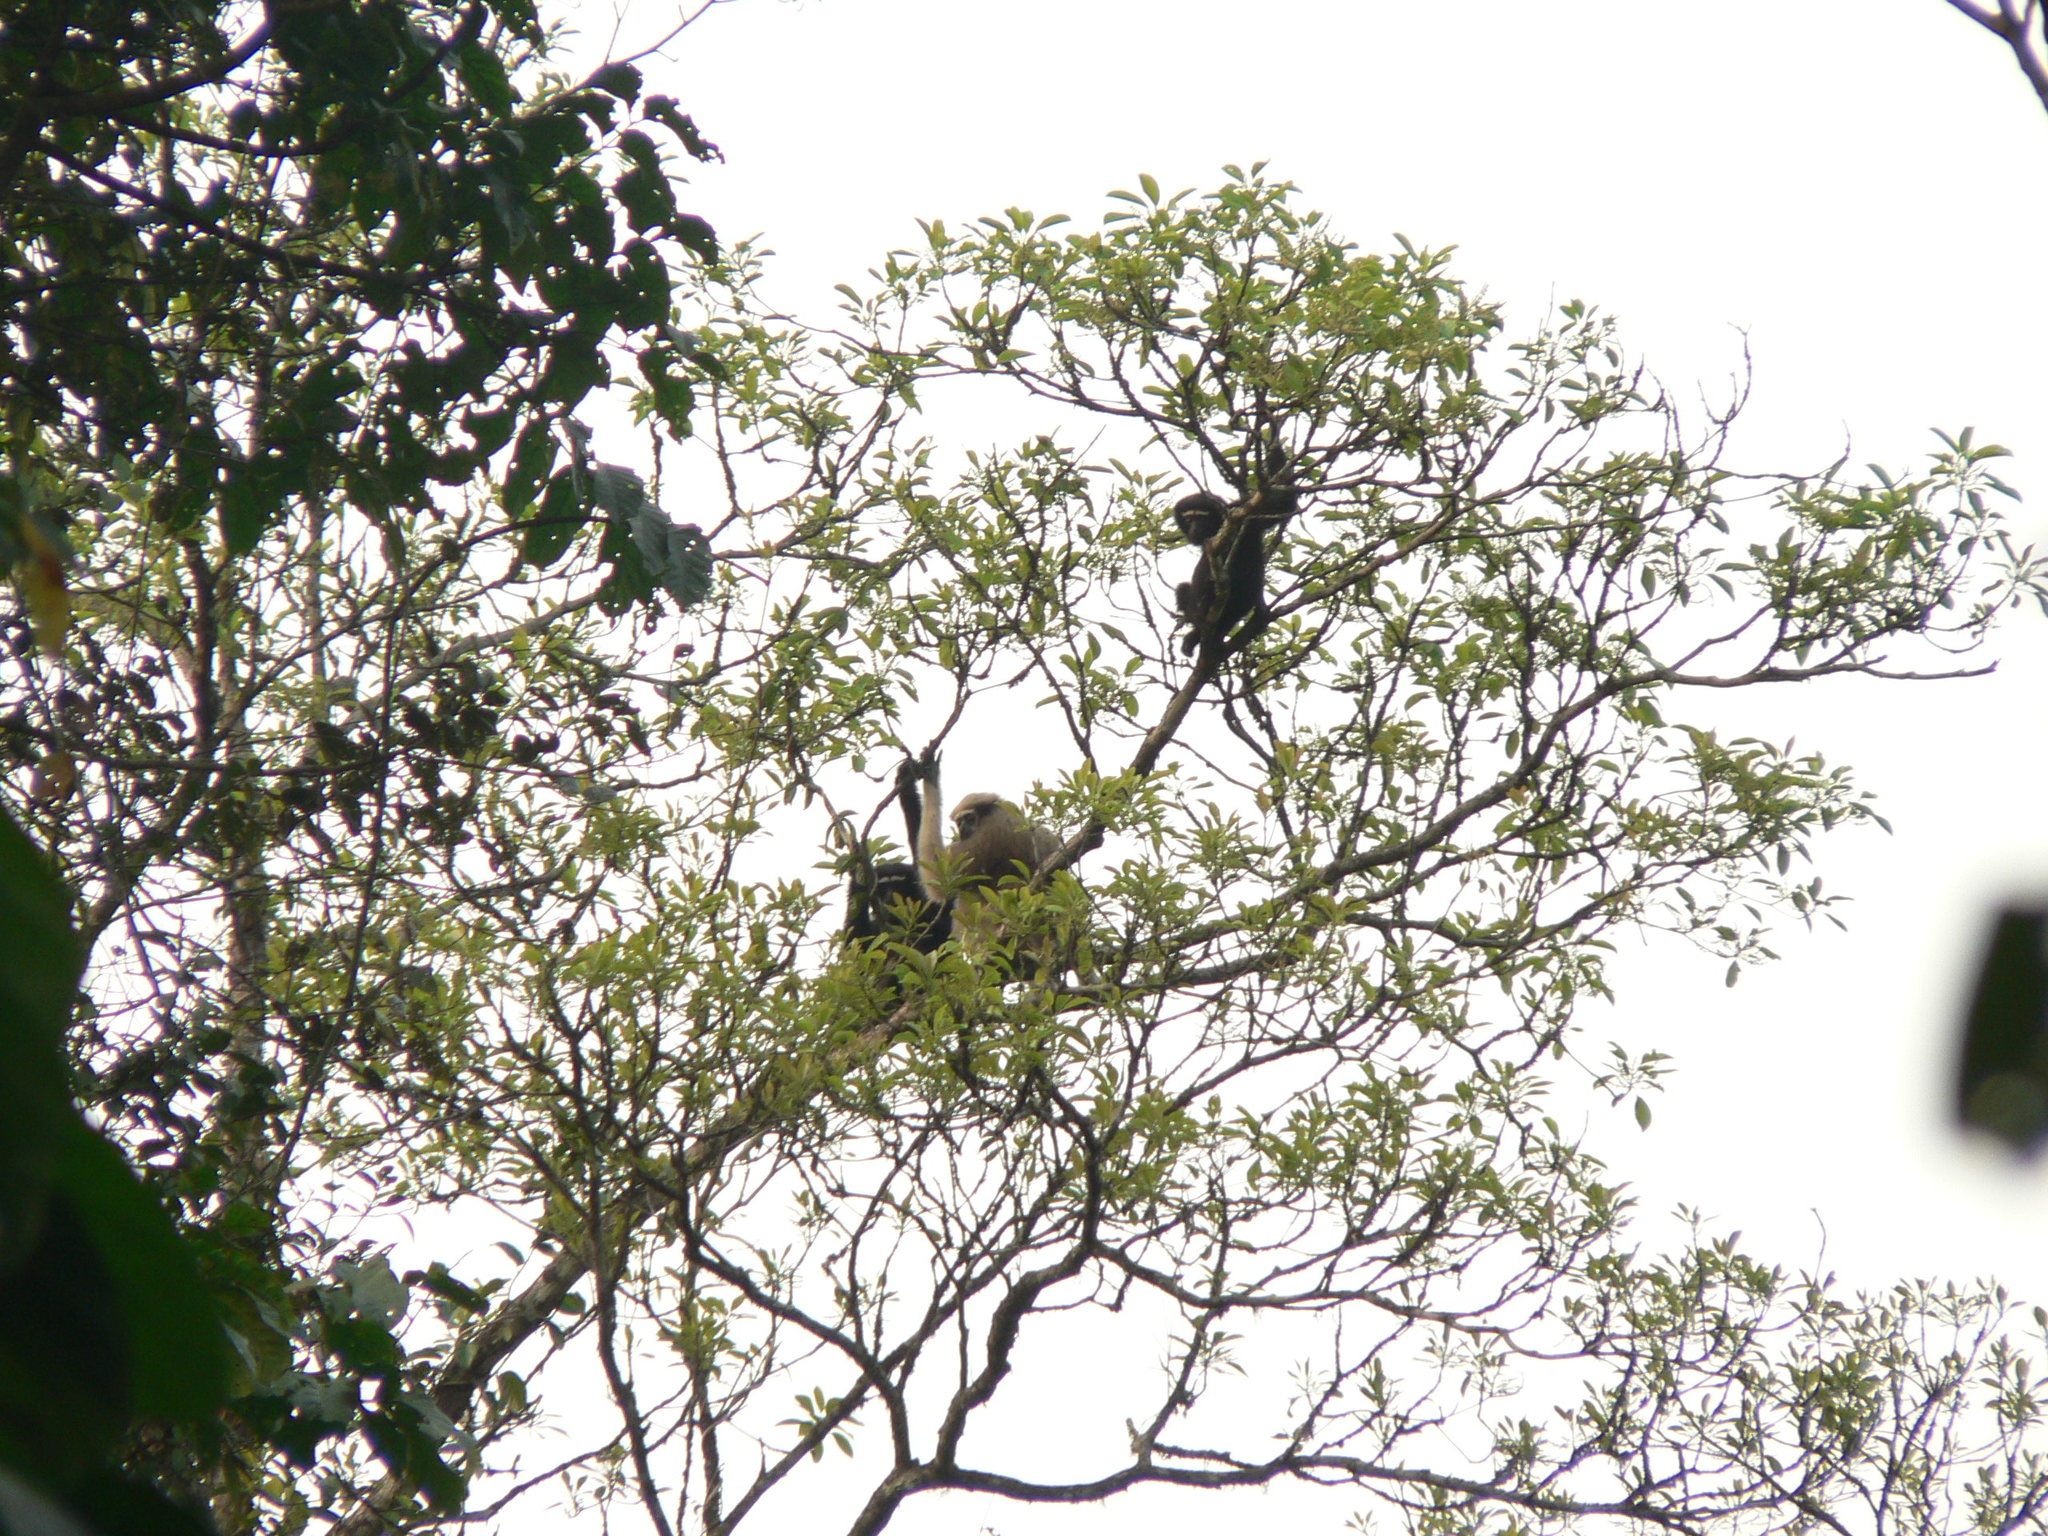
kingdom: Animalia
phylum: Chordata
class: Mammalia
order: Primates
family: Hylobatidae
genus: Hoolock
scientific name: Hoolock hoolock
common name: Western hoolock gibbon
